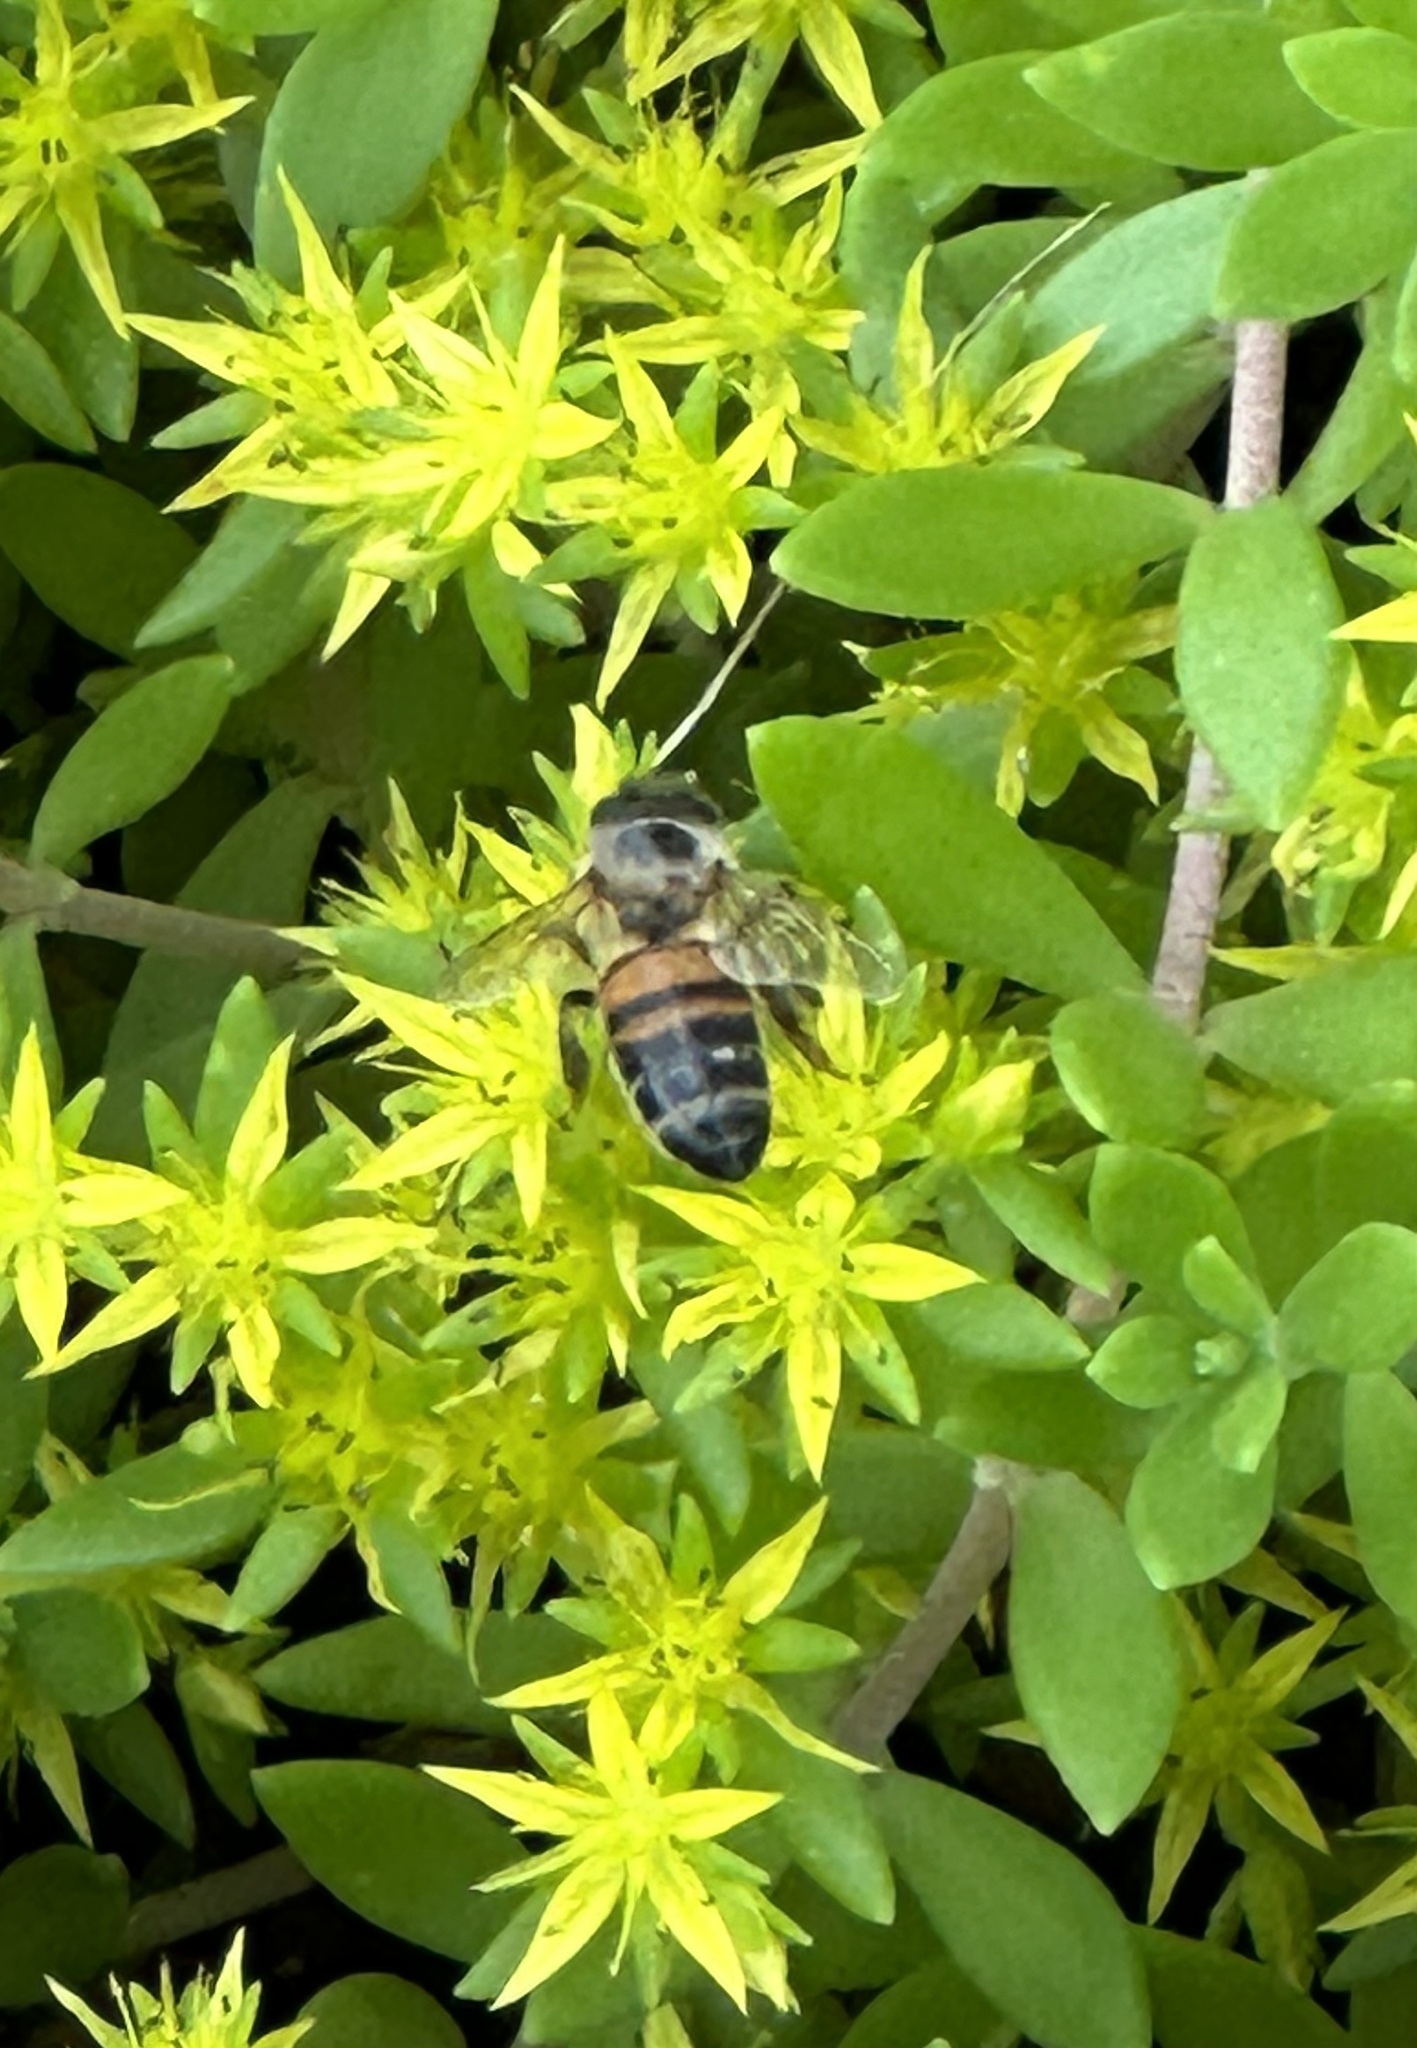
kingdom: Animalia
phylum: Arthropoda
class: Insecta
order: Hymenoptera
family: Apidae
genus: Apis
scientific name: Apis mellifera
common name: Honey bee
